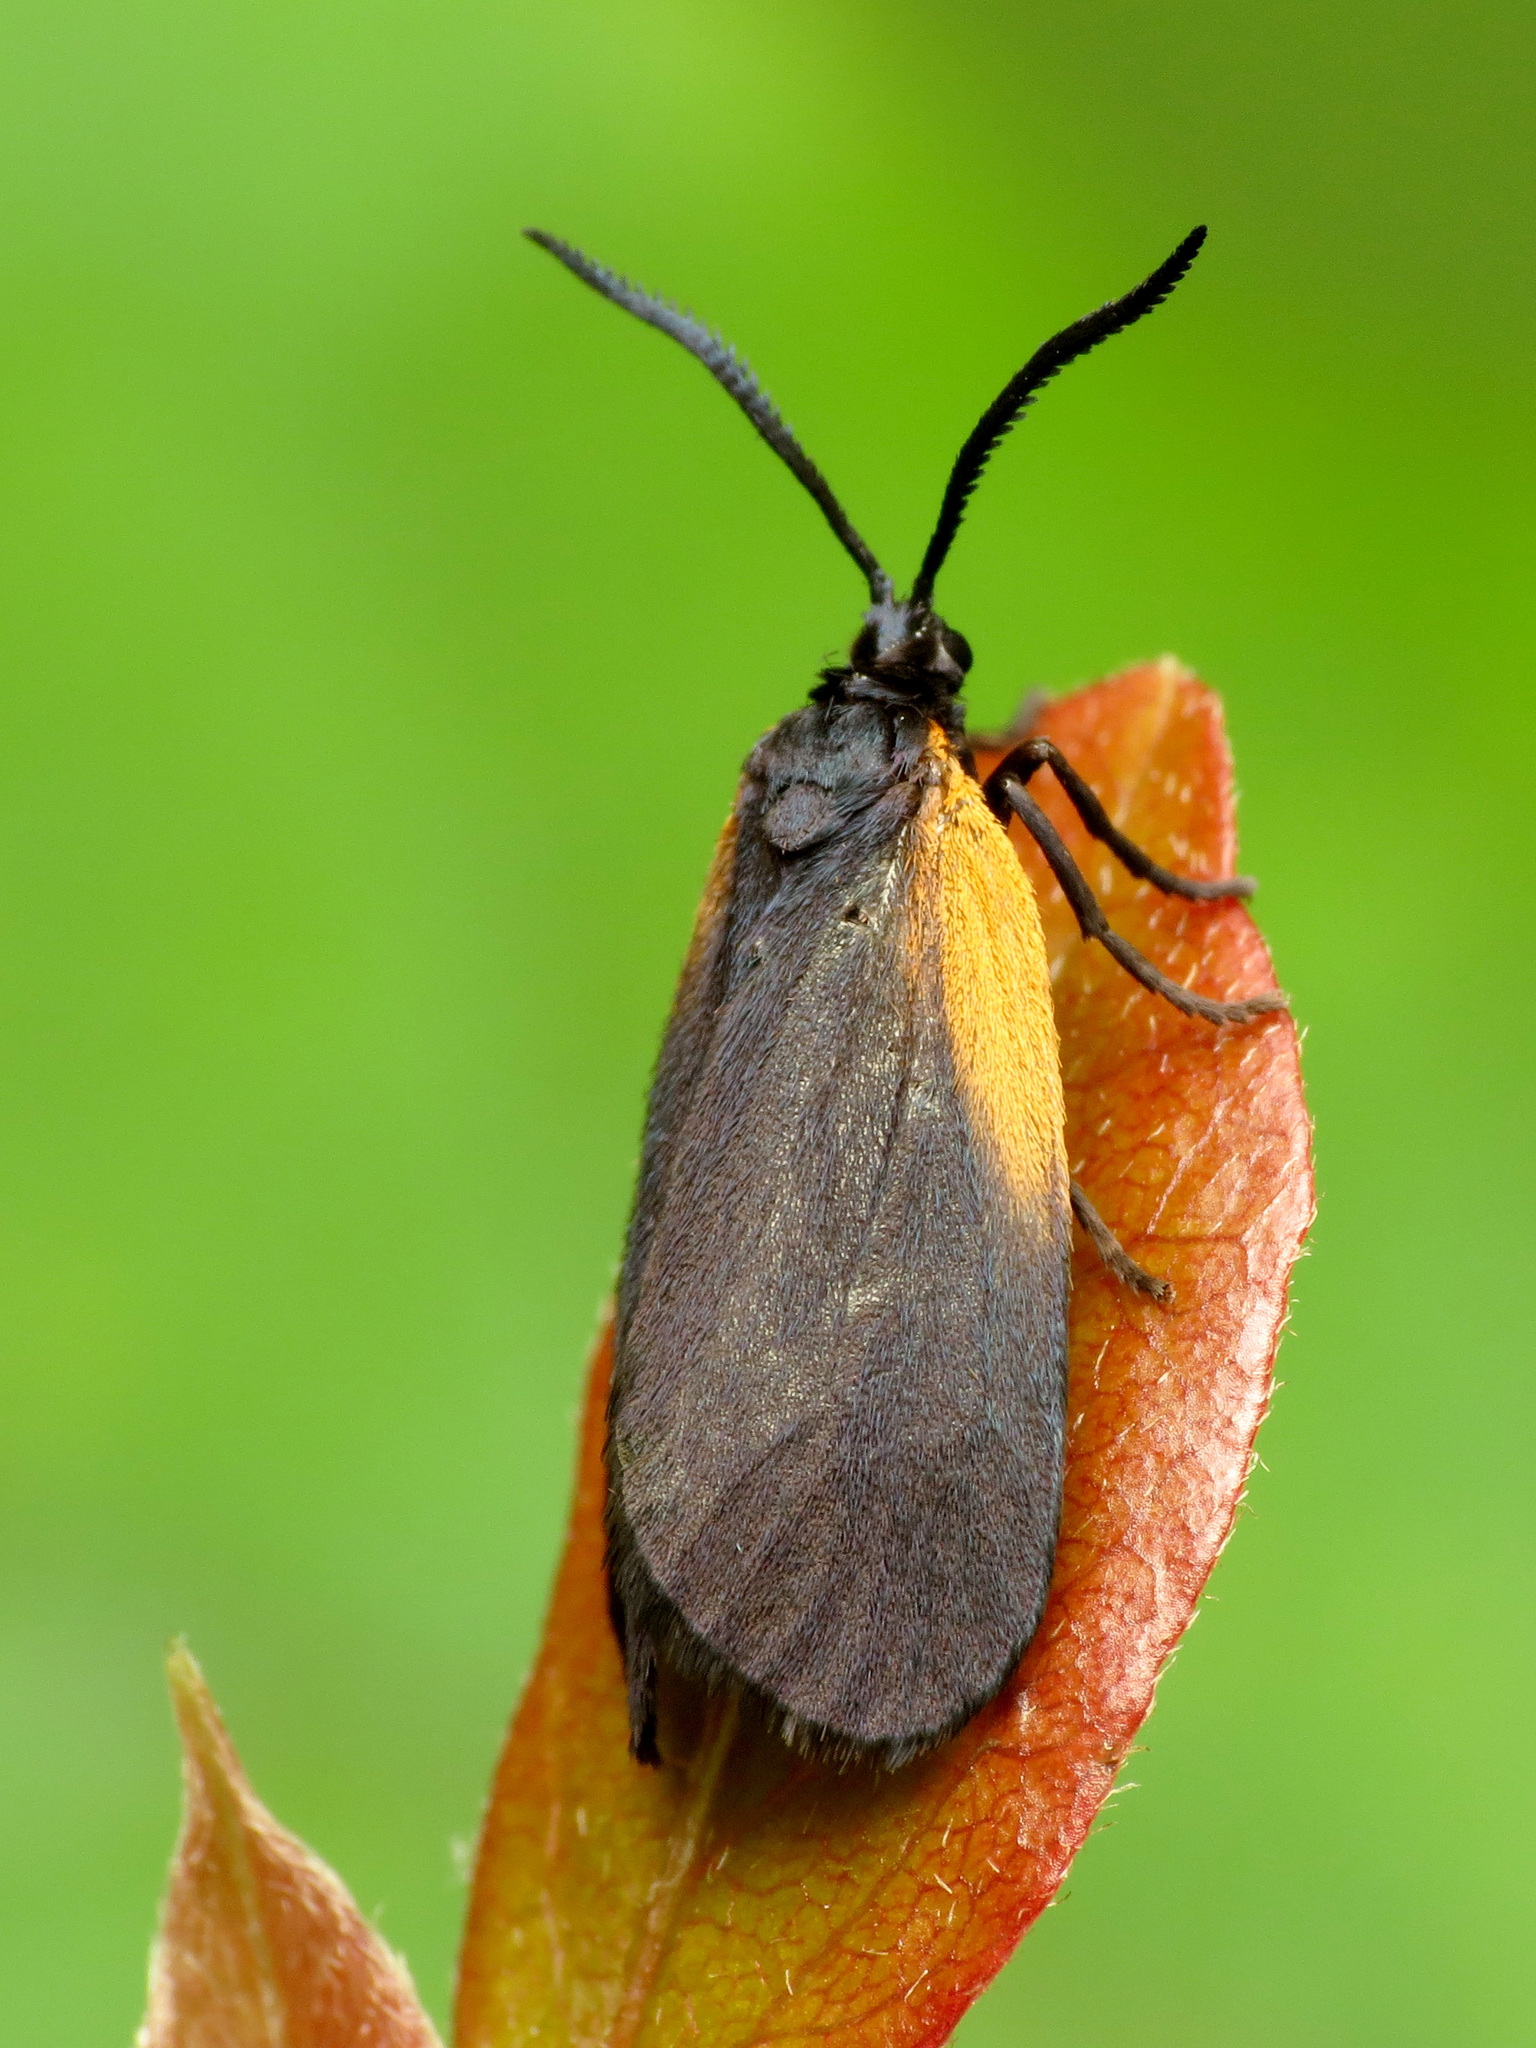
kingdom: Animalia
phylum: Arthropoda
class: Insecta
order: Lepidoptera
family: Zygaenidae
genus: Malthaca
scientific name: Malthaca dimidiata
